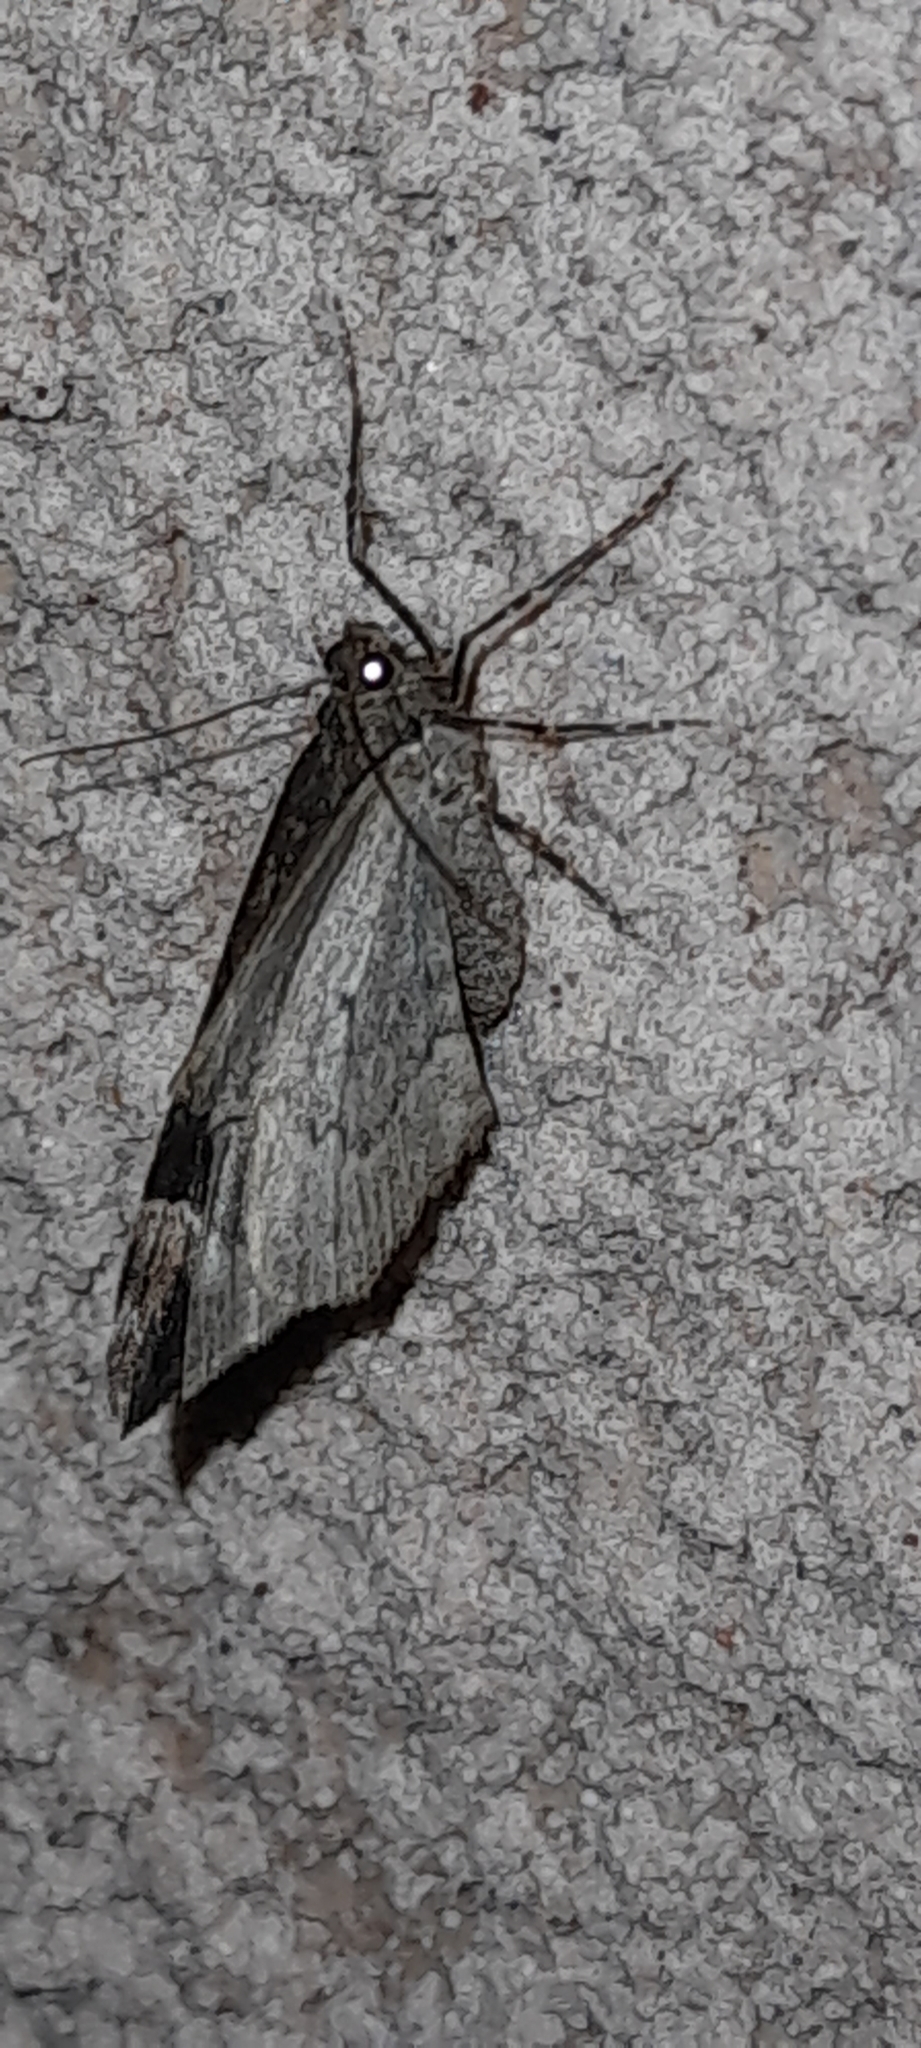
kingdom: Animalia
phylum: Arthropoda
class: Insecta
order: Lepidoptera
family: Geometridae
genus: Xanthorhoe
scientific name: Xanthorhoe fluctuata
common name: Garden carpet
